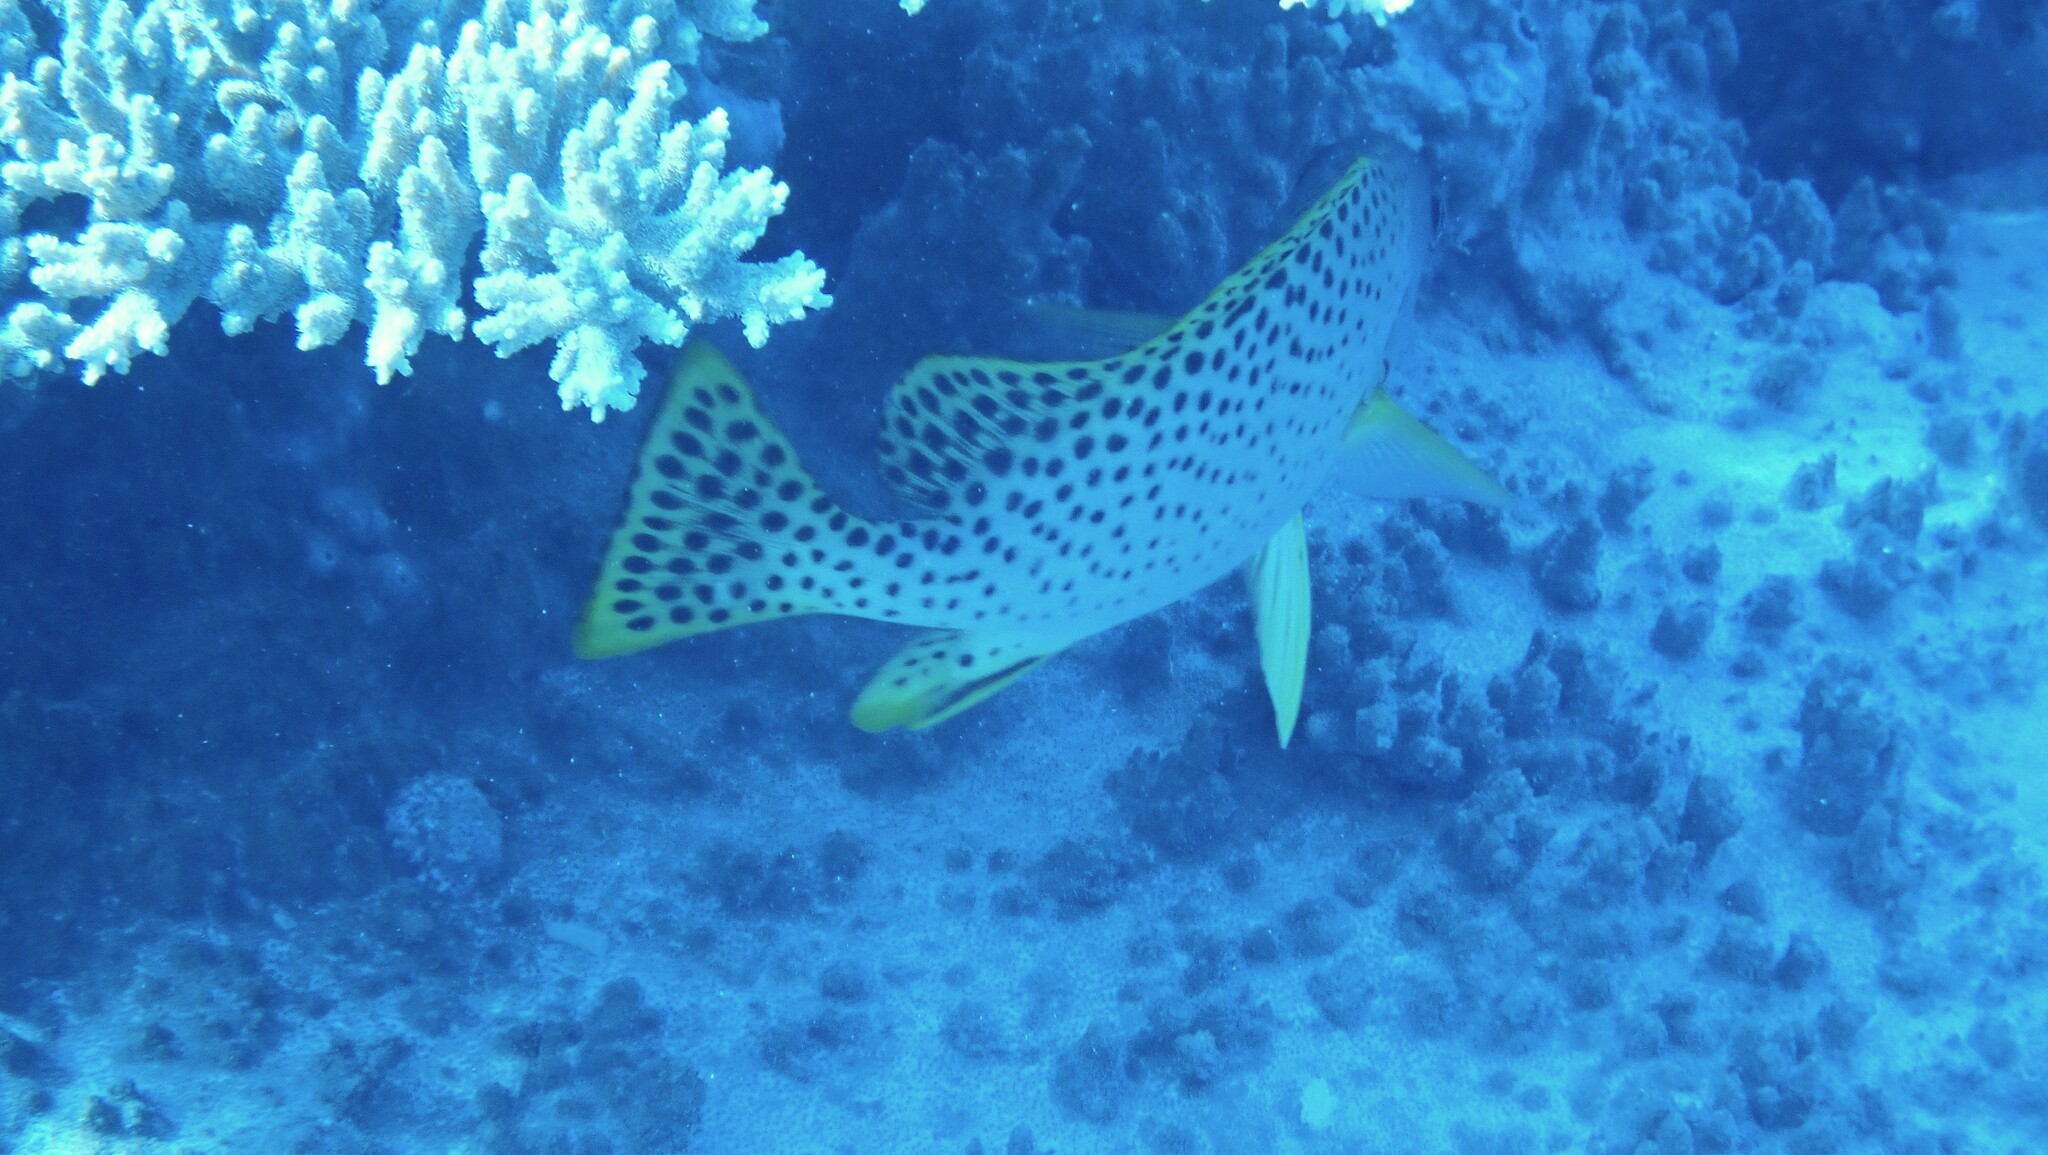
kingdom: Animalia
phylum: Chordata
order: Perciformes
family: Haemulidae
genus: Plectorhinchus
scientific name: Plectorhinchus gaterinus
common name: Blackspotted rubberlip
